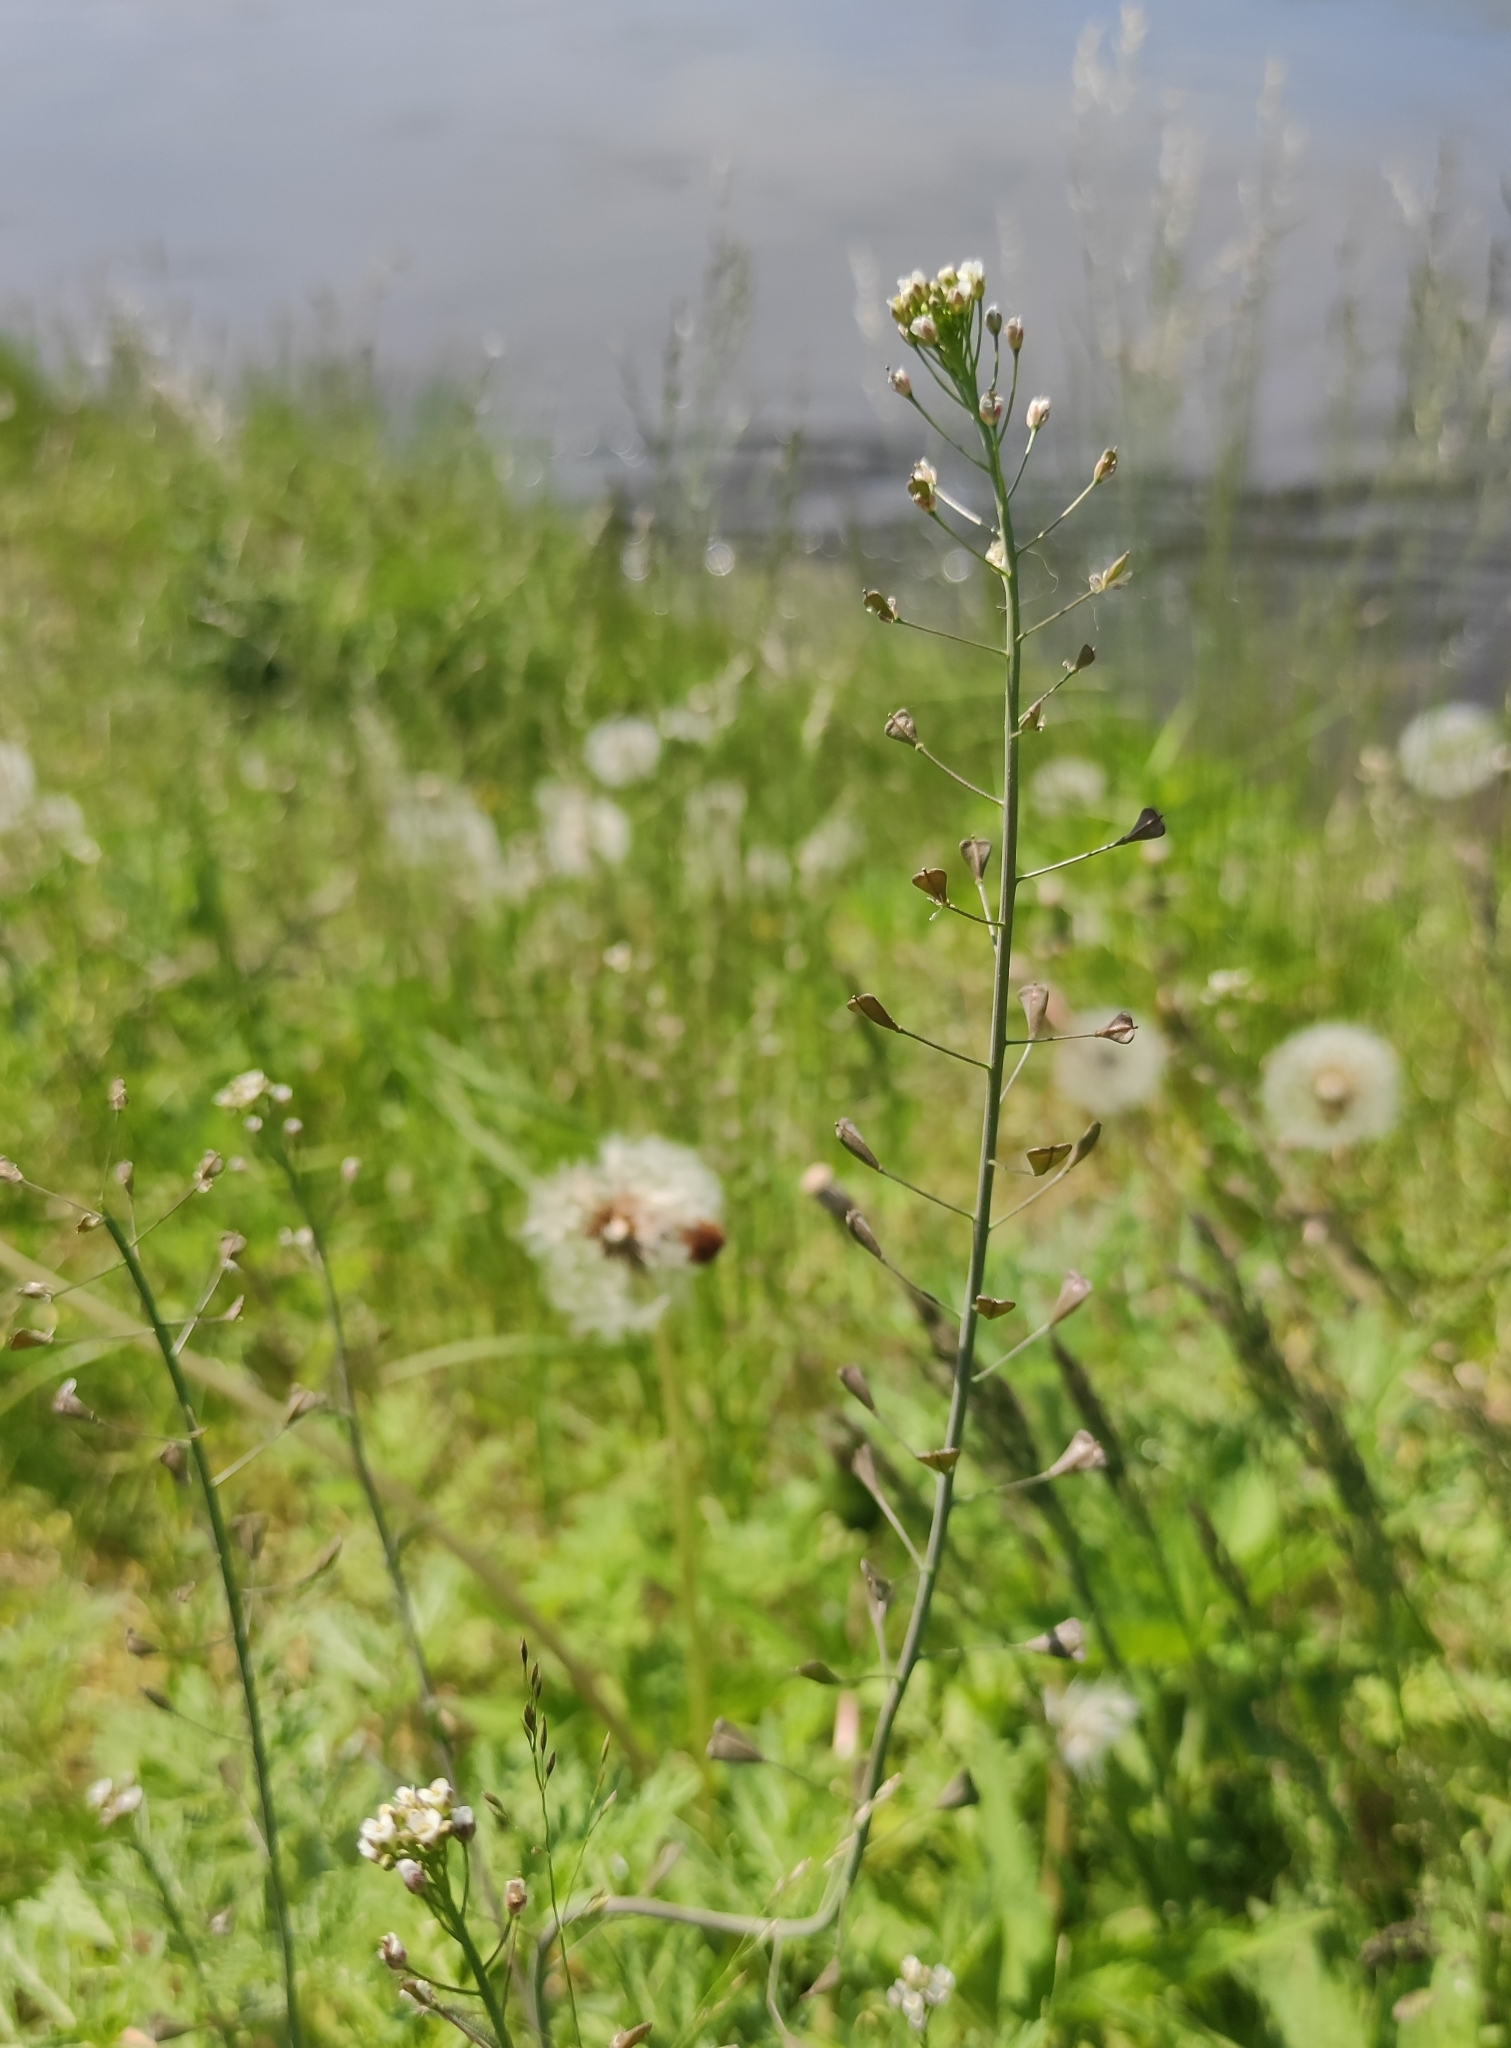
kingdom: Plantae
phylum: Tracheophyta
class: Magnoliopsida
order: Brassicales
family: Brassicaceae
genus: Capsella
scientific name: Capsella bursa-pastoris
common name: Shepherd's purse
